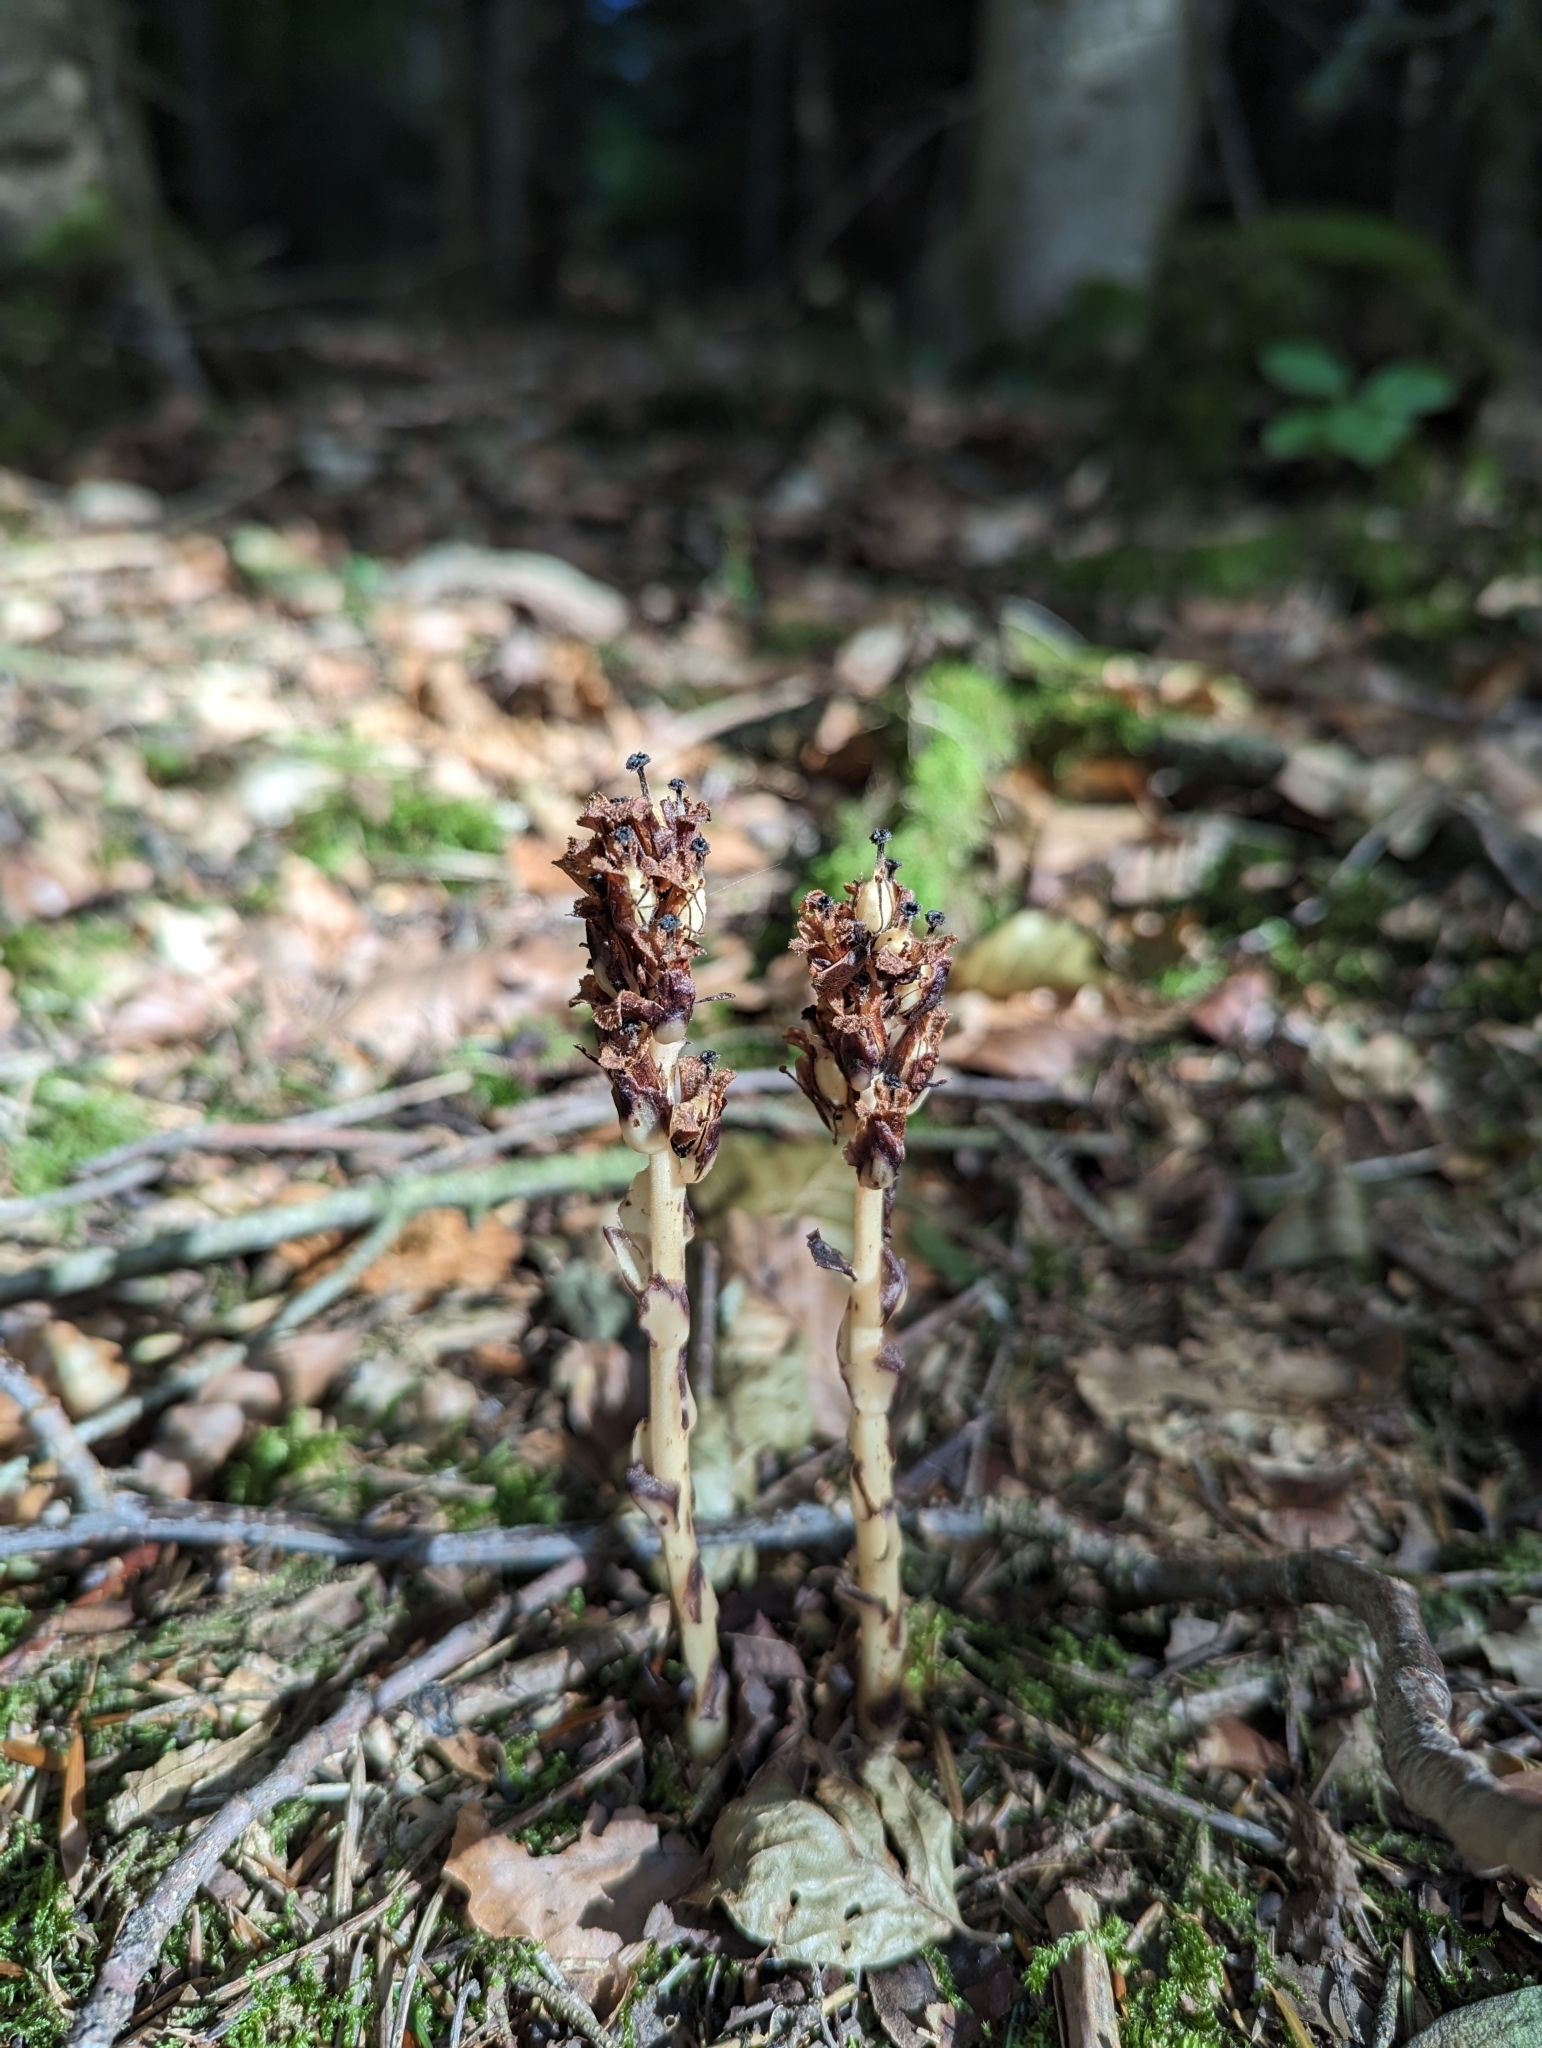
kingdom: Plantae
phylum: Tracheophyta
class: Magnoliopsida
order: Ericales
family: Ericaceae
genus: Hypopitys
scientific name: Hypopitys monotropa
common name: Yellow bird's-nest
